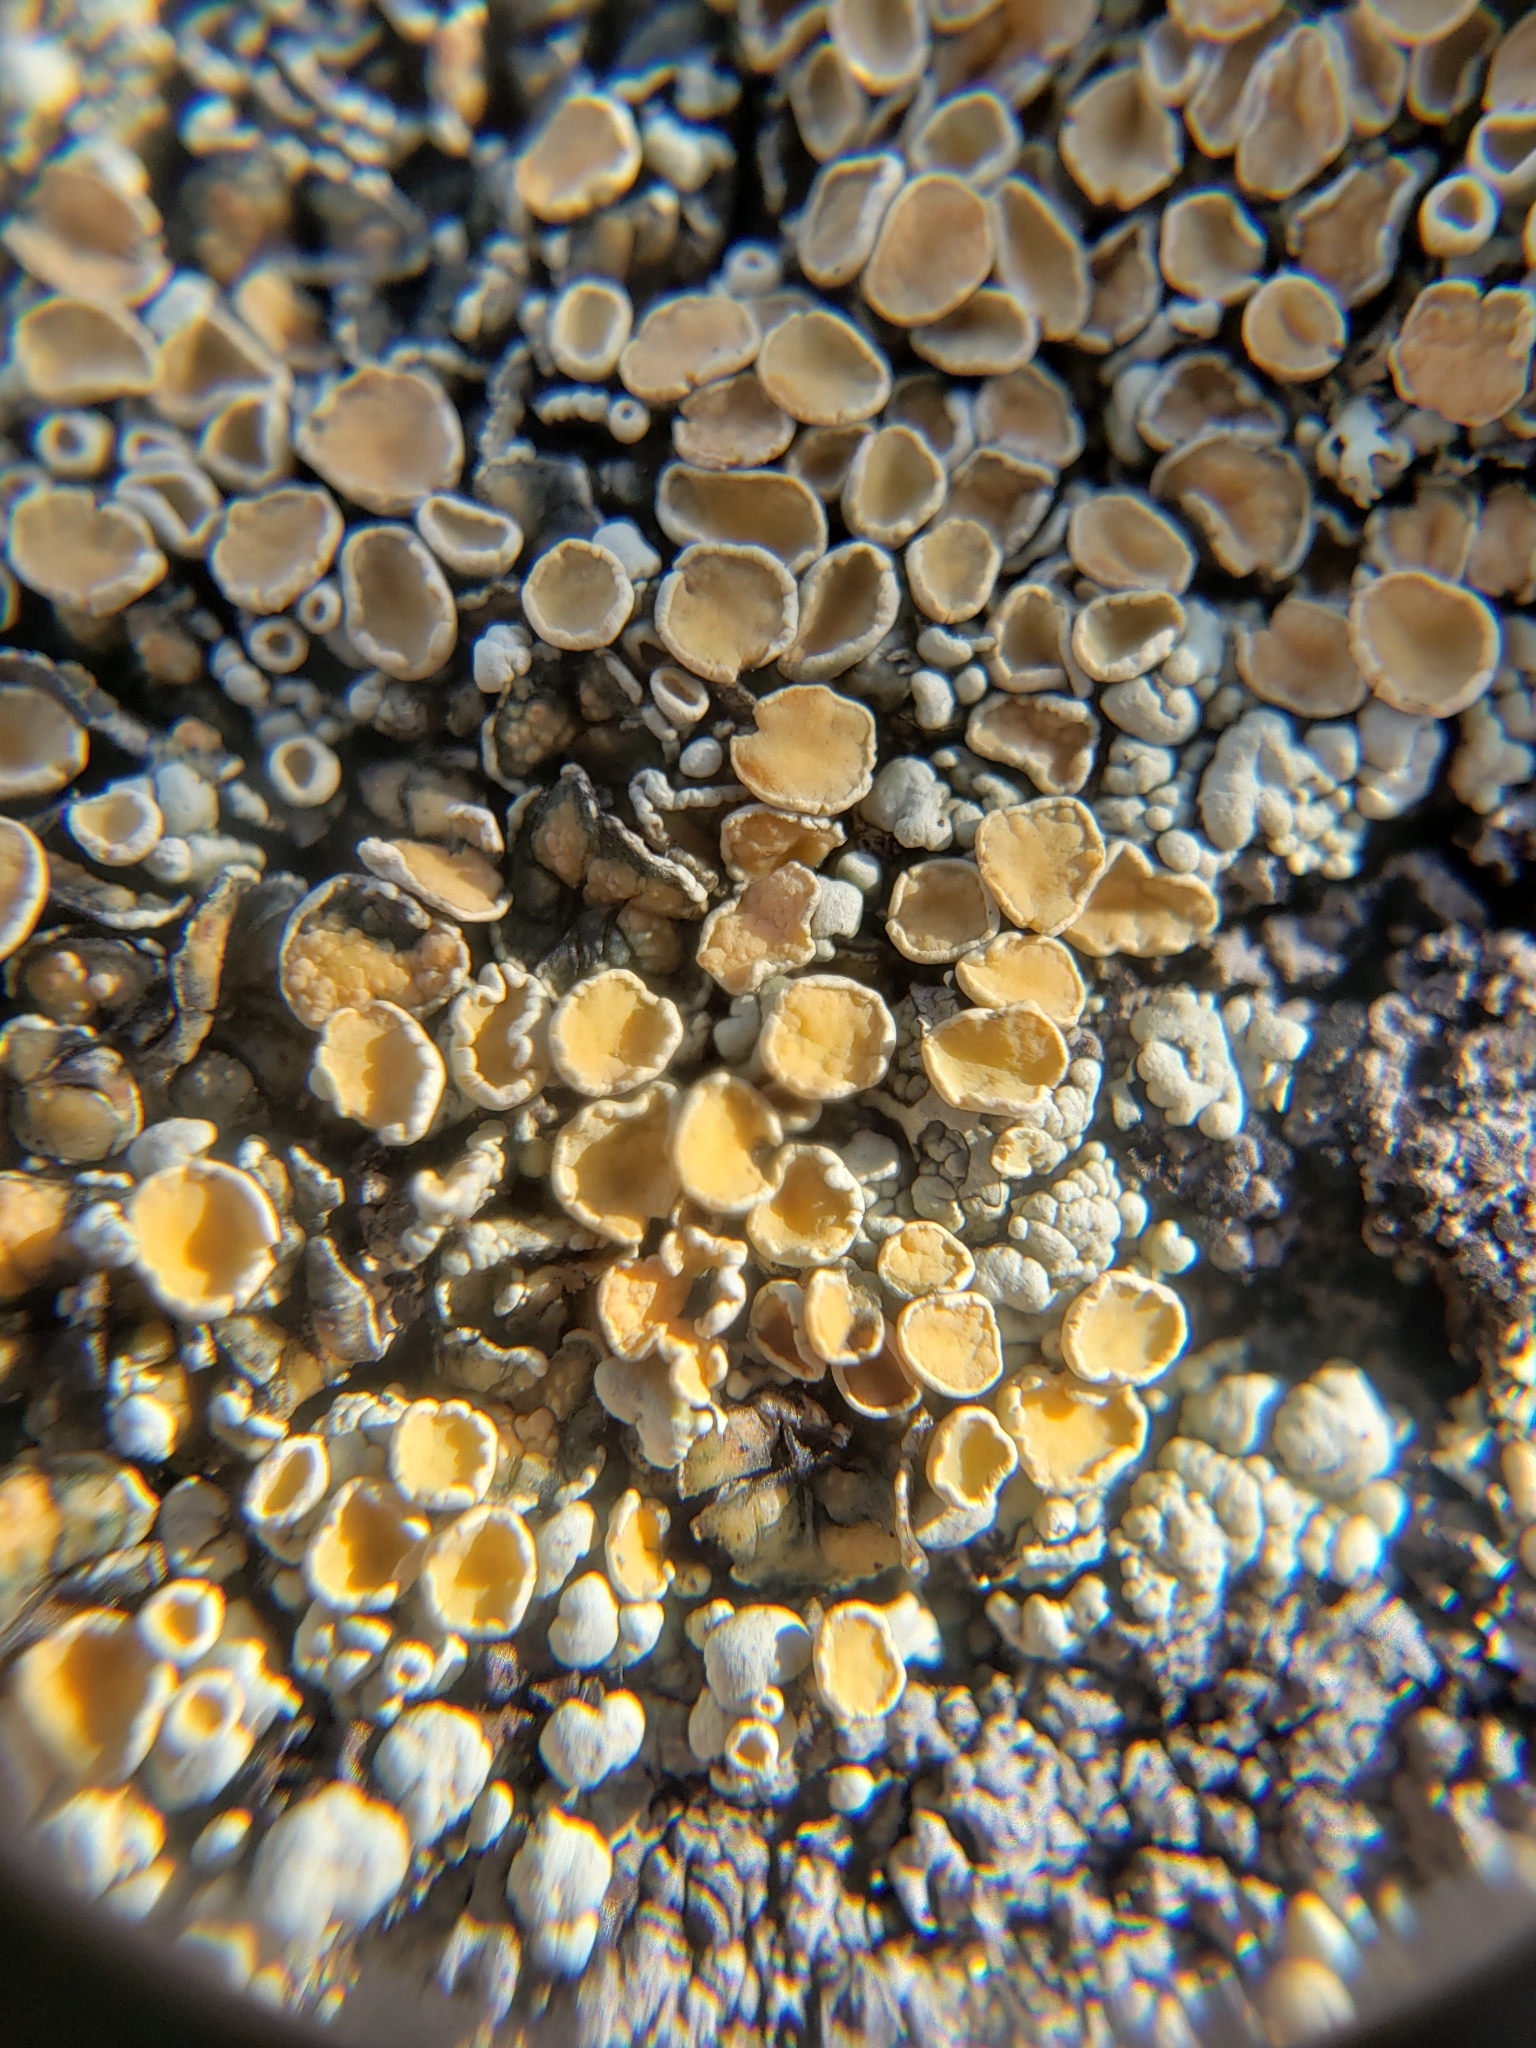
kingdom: Fungi
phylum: Ascomycota
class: Lecanoromycetes
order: Lecanorales
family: Lecanoraceae
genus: Sedelnikovaea
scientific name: Sedelnikovaea subdiscrepans
